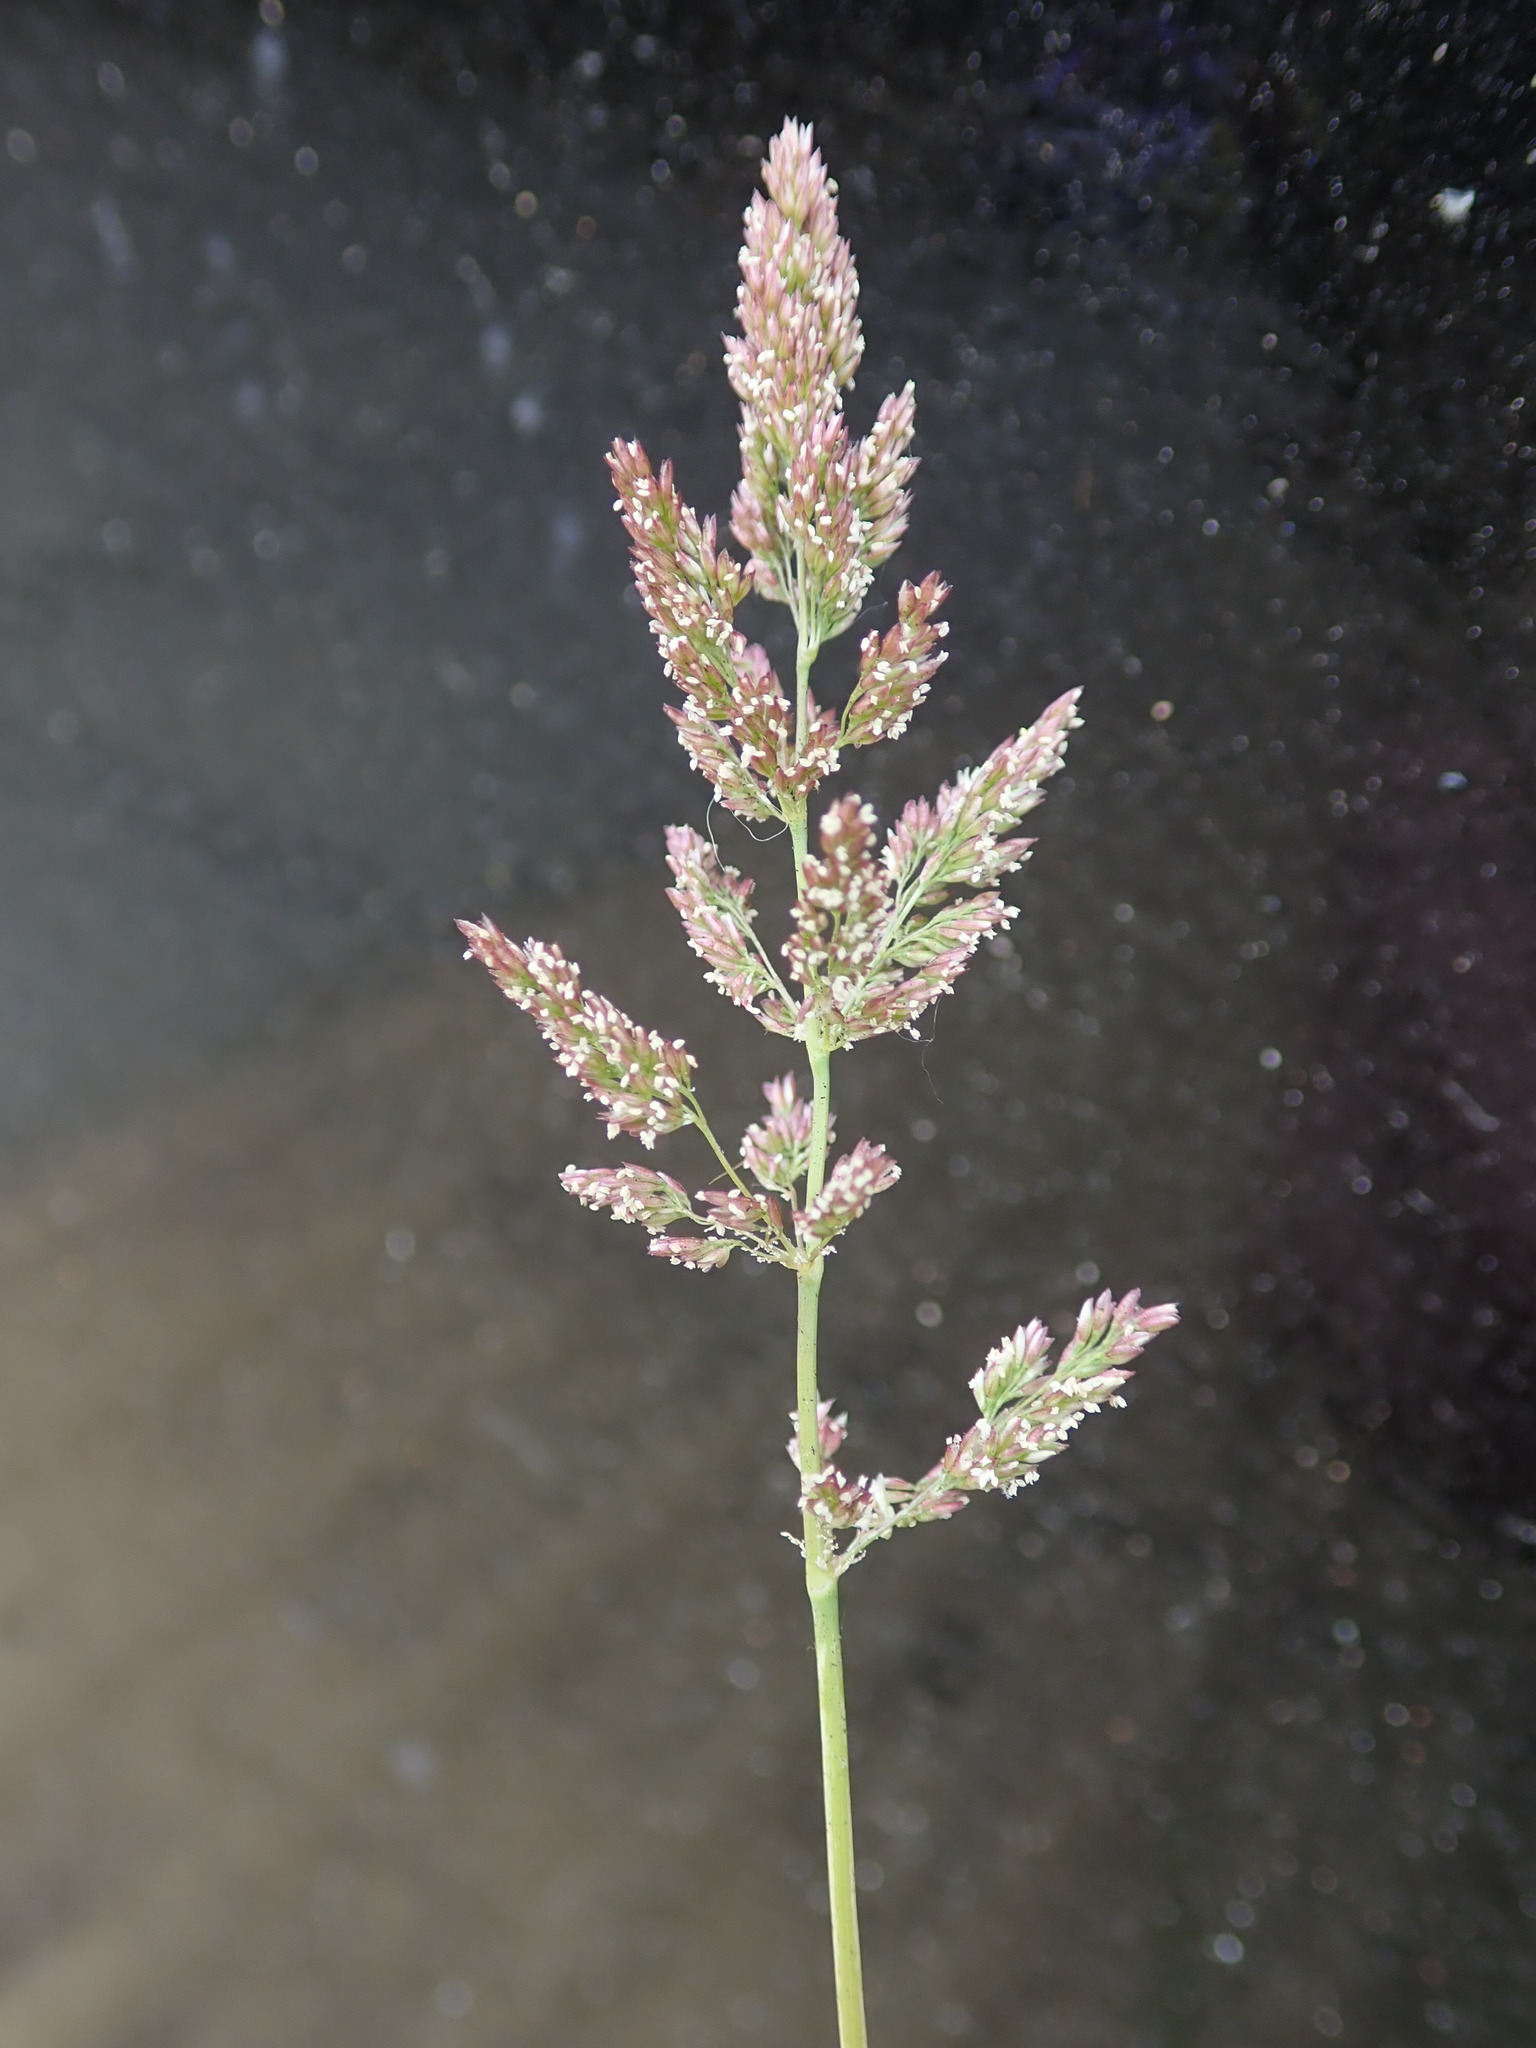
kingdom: Plantae
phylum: Tracheophyta
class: Liliopsida
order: Poales
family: Poaceae
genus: Polypogon
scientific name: Polypogon viridis
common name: Water bent
